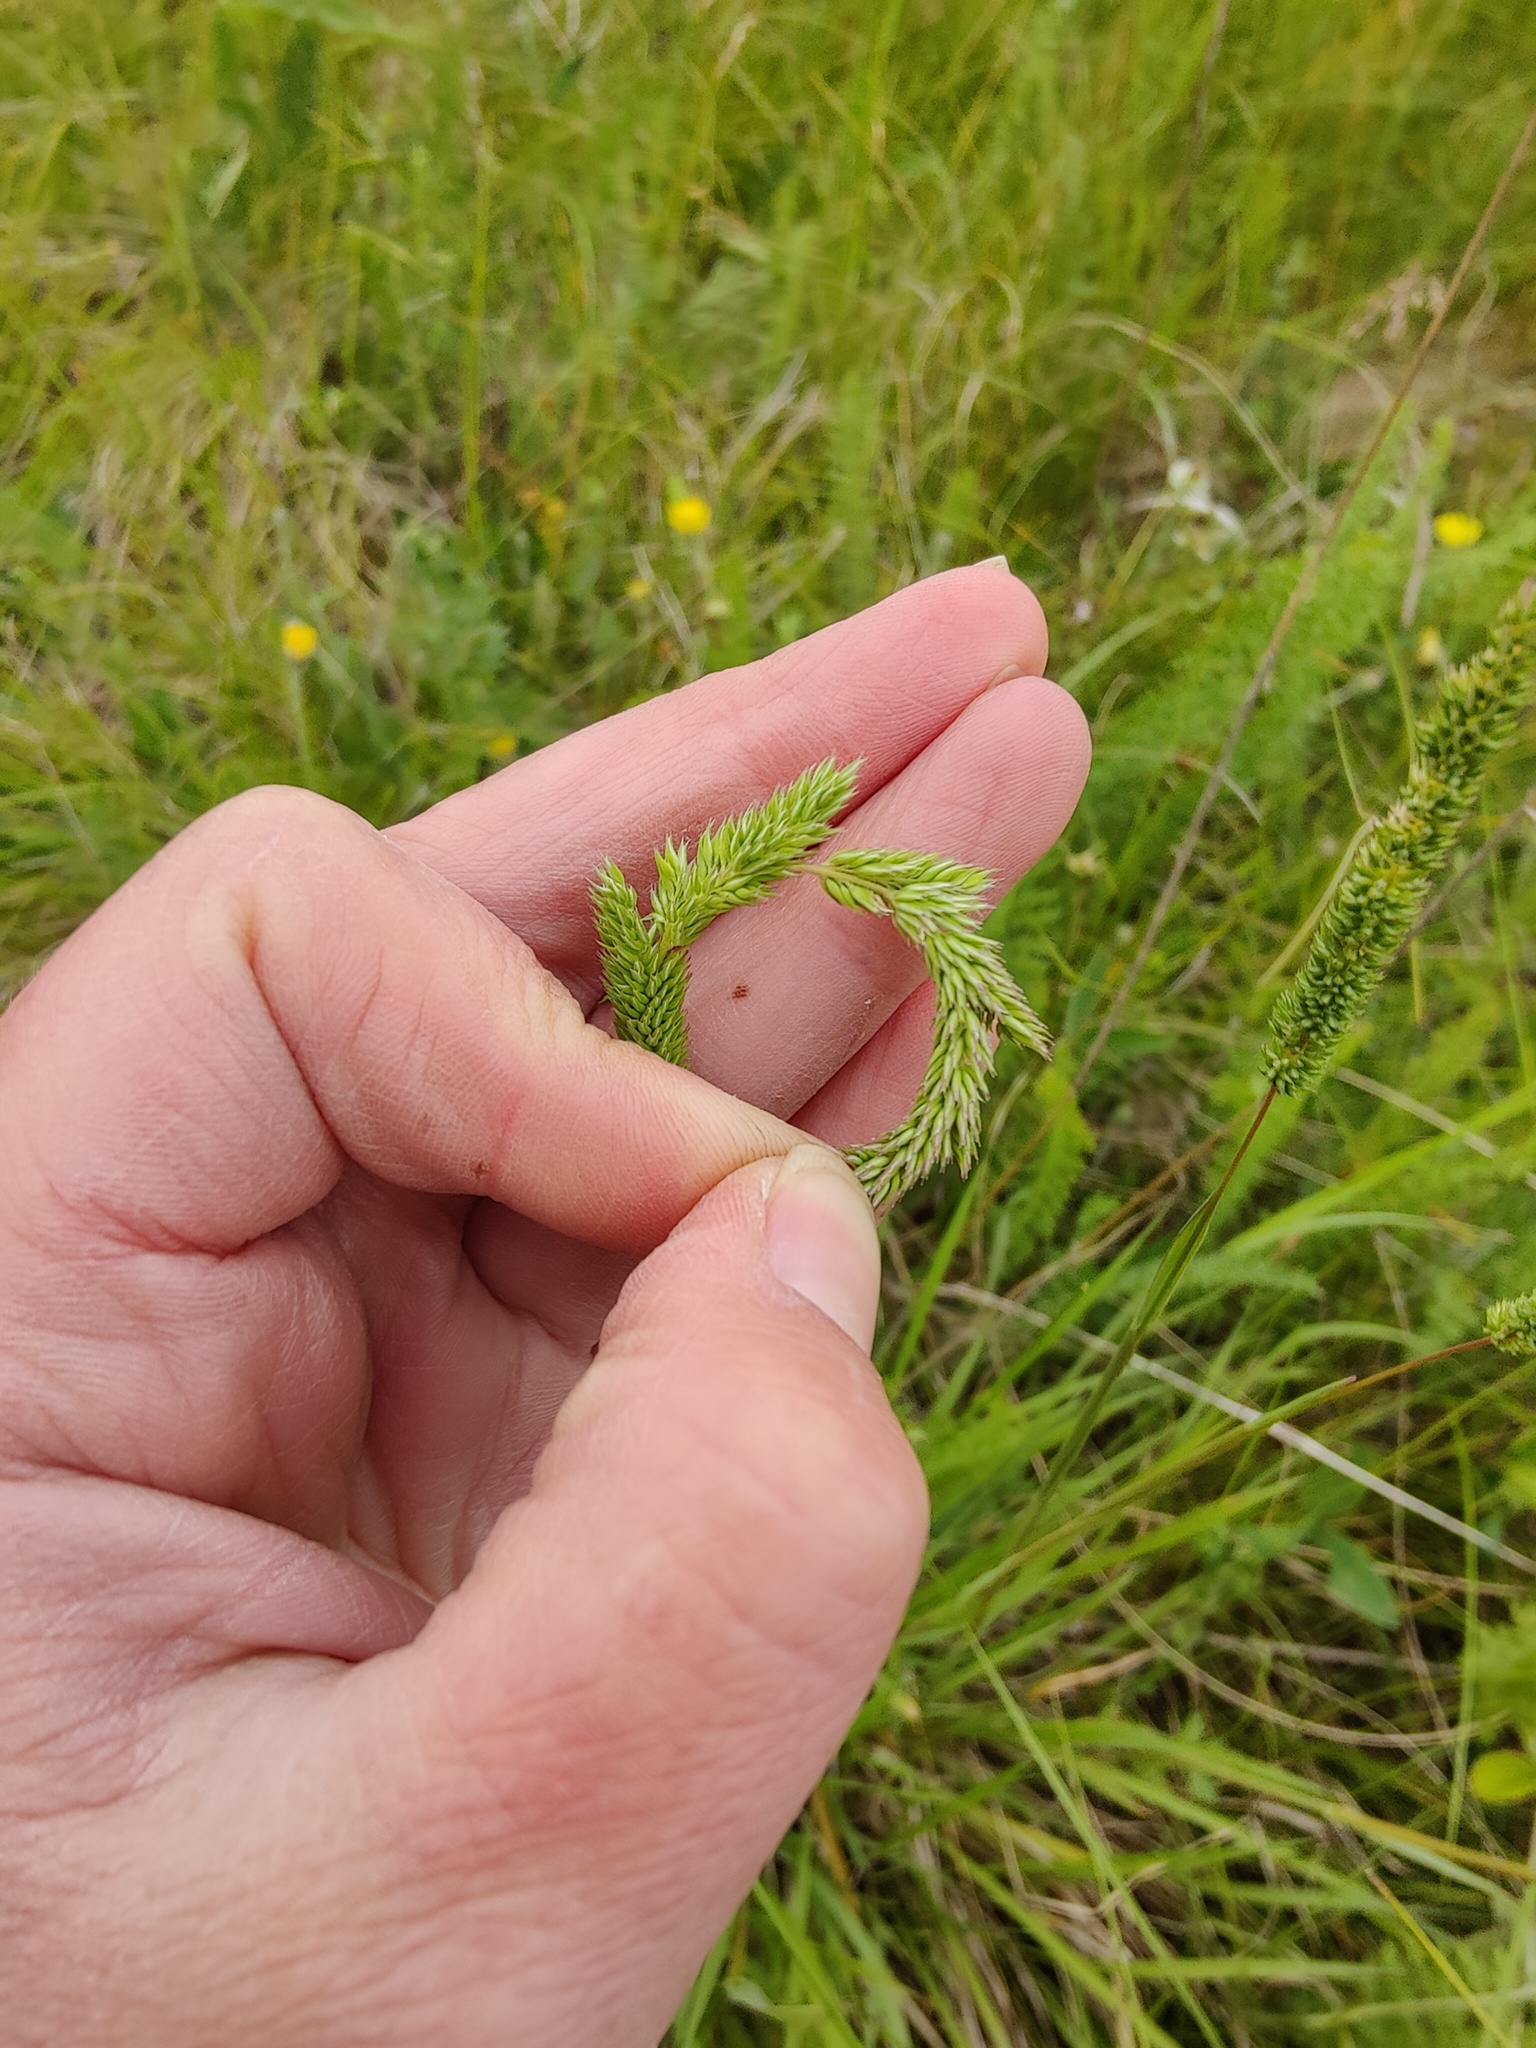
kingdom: Plantae
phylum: Tracheophyta
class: Liliopsida
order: Poales
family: Poaceae
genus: Phleum
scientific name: Phleum phleoides
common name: Purple-stem cat's-tail
